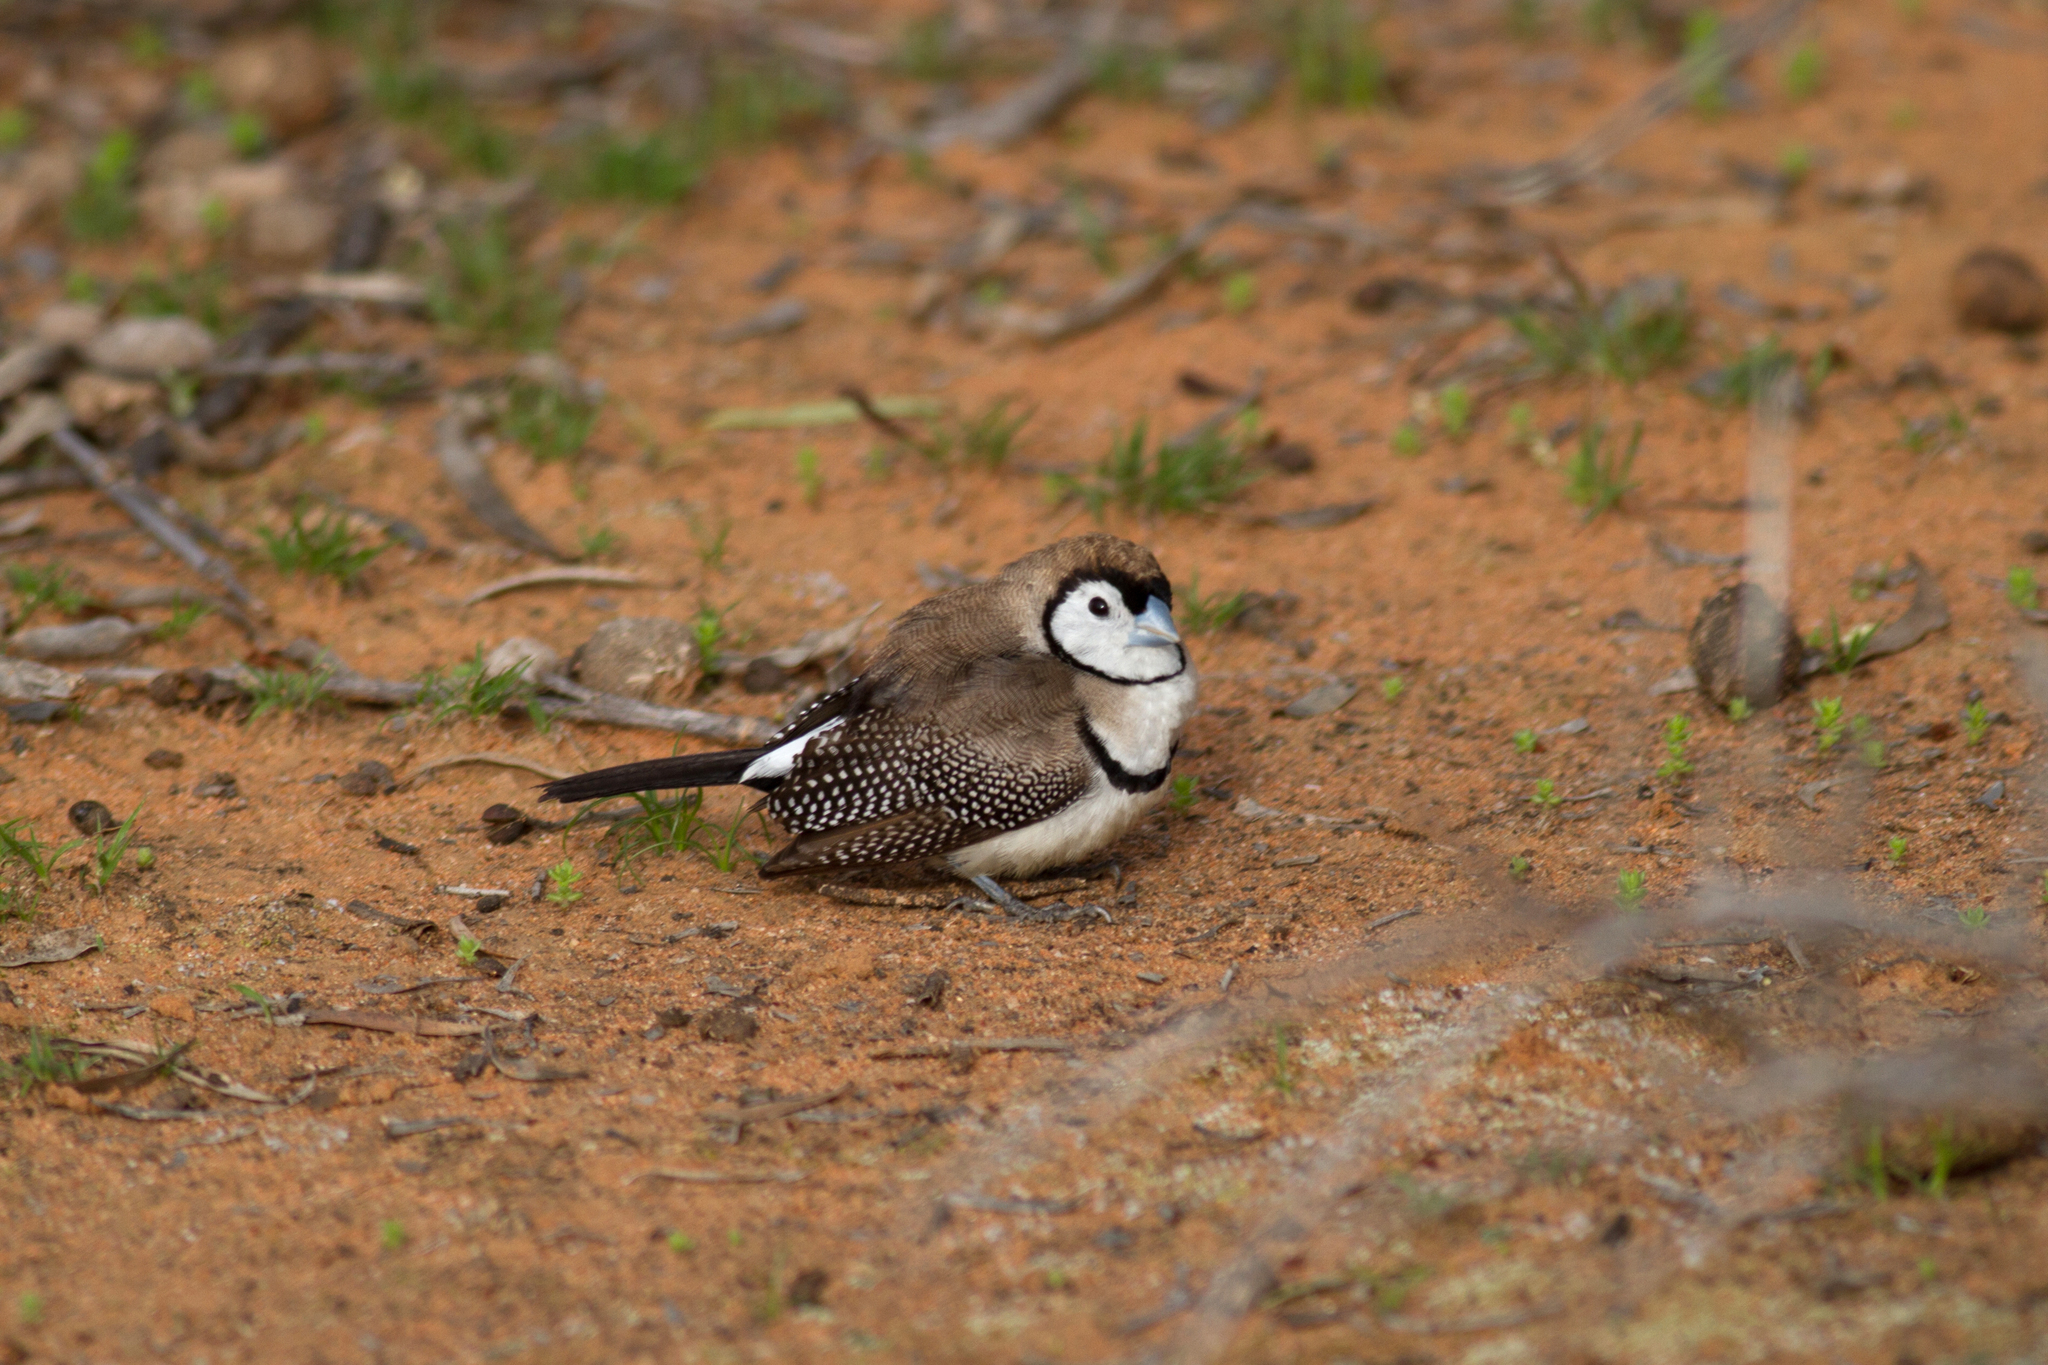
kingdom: Animalia
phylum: Chordata
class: Aves
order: Passeriformes
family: Estrildidae
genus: Taeniopygia
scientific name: Taeniopygia bichenovii
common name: Double-barred finch
